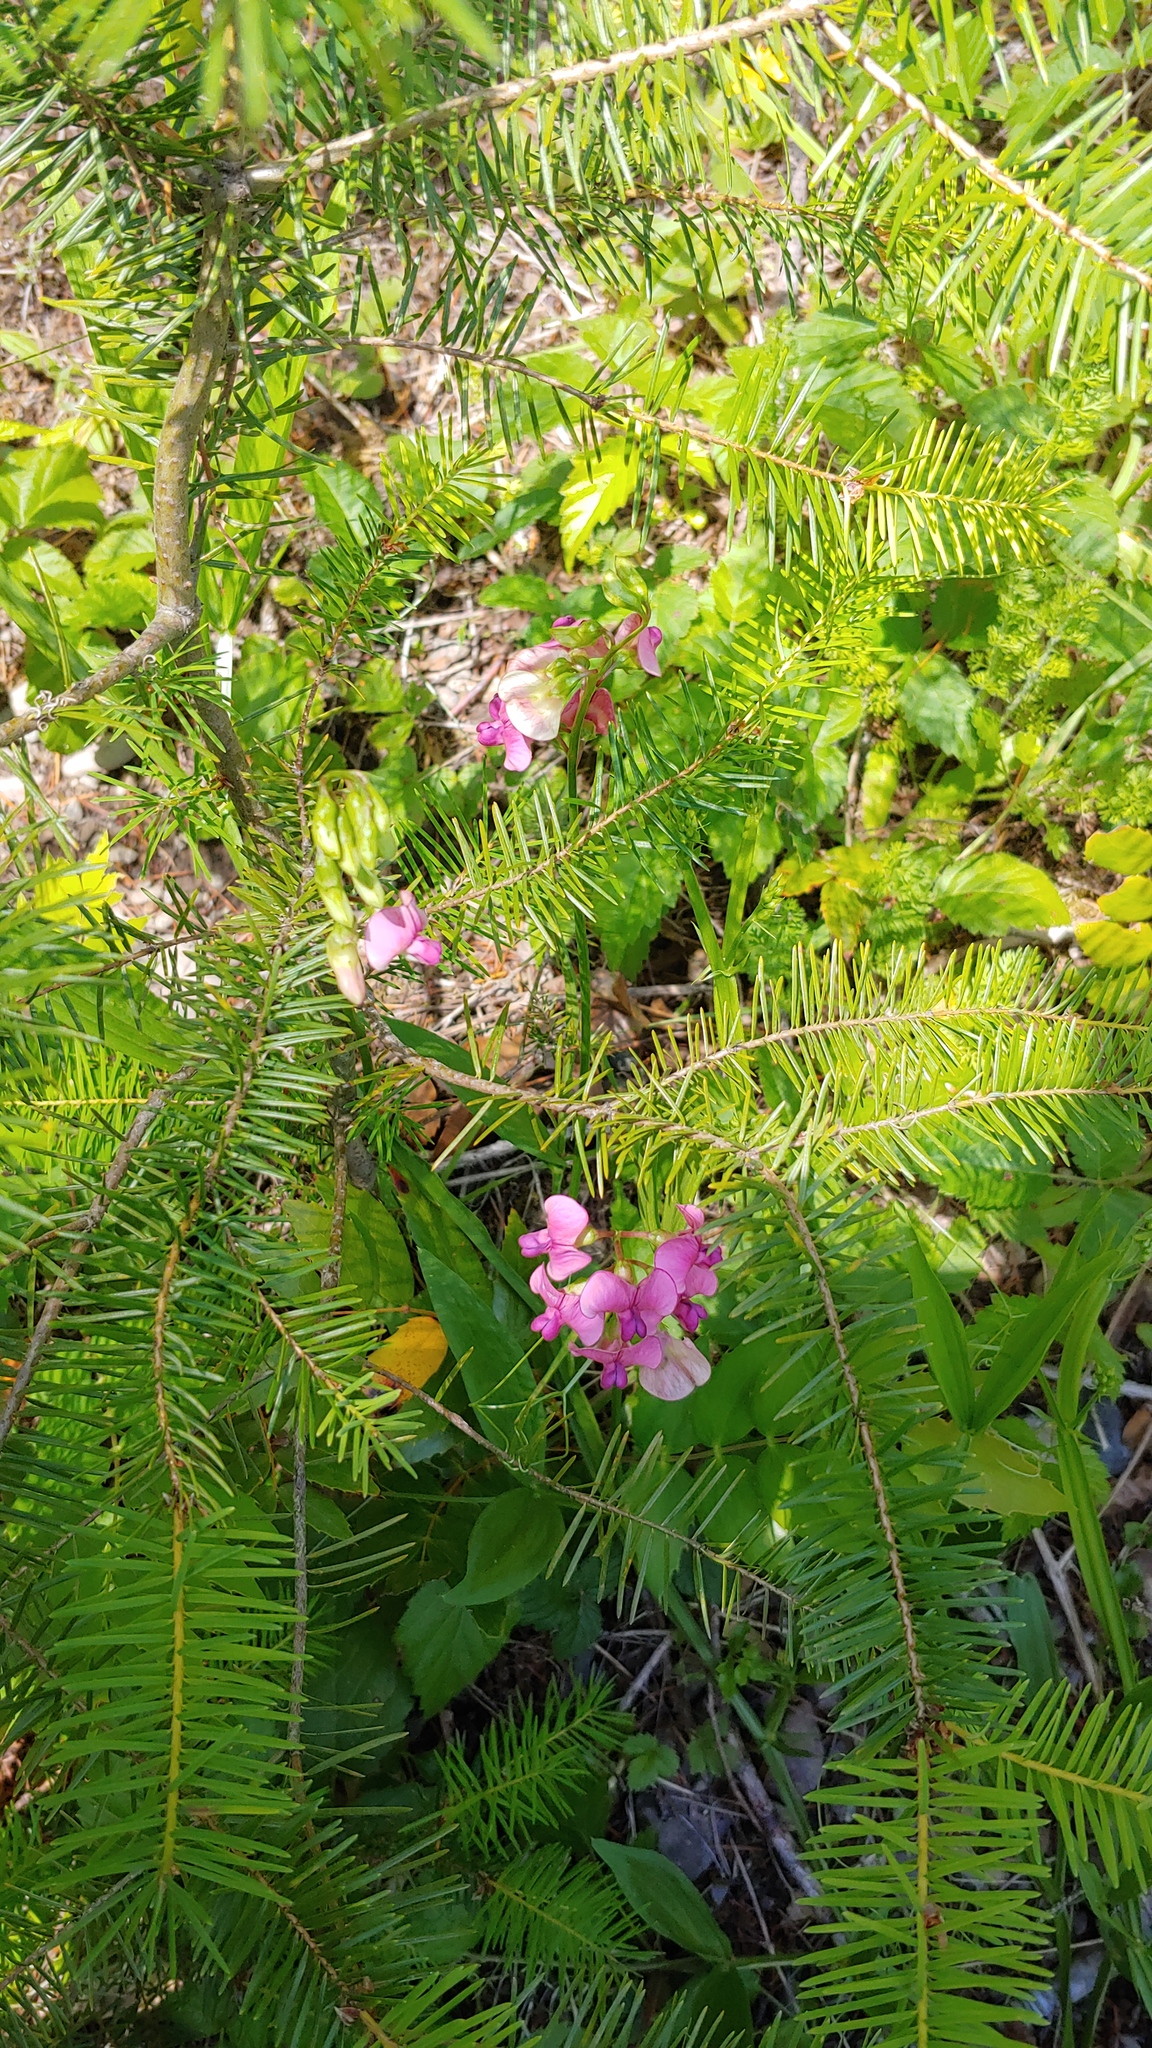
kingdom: Plantae
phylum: Tracheophyta
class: Magnoliopsida
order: Fabales
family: Fabaceae
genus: Lathyrus
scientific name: Lathyrus sylvestris
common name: Flat pea
